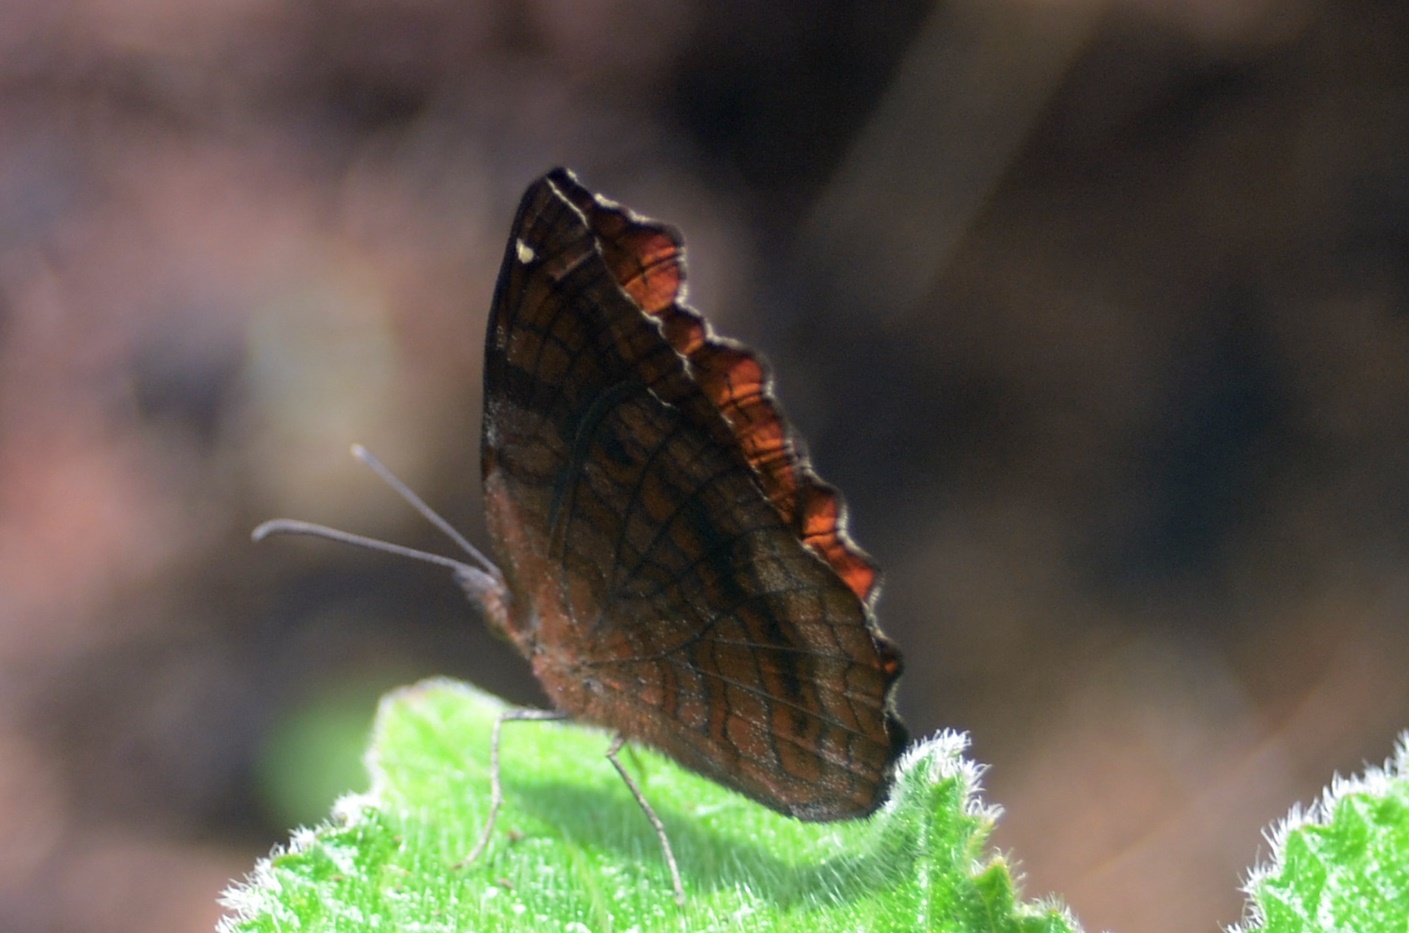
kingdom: Animalia
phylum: Arthropoda
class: Insecta
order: Lepidoptera
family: Nymphalidae
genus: Ariadne
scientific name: Ariadne ariadne
